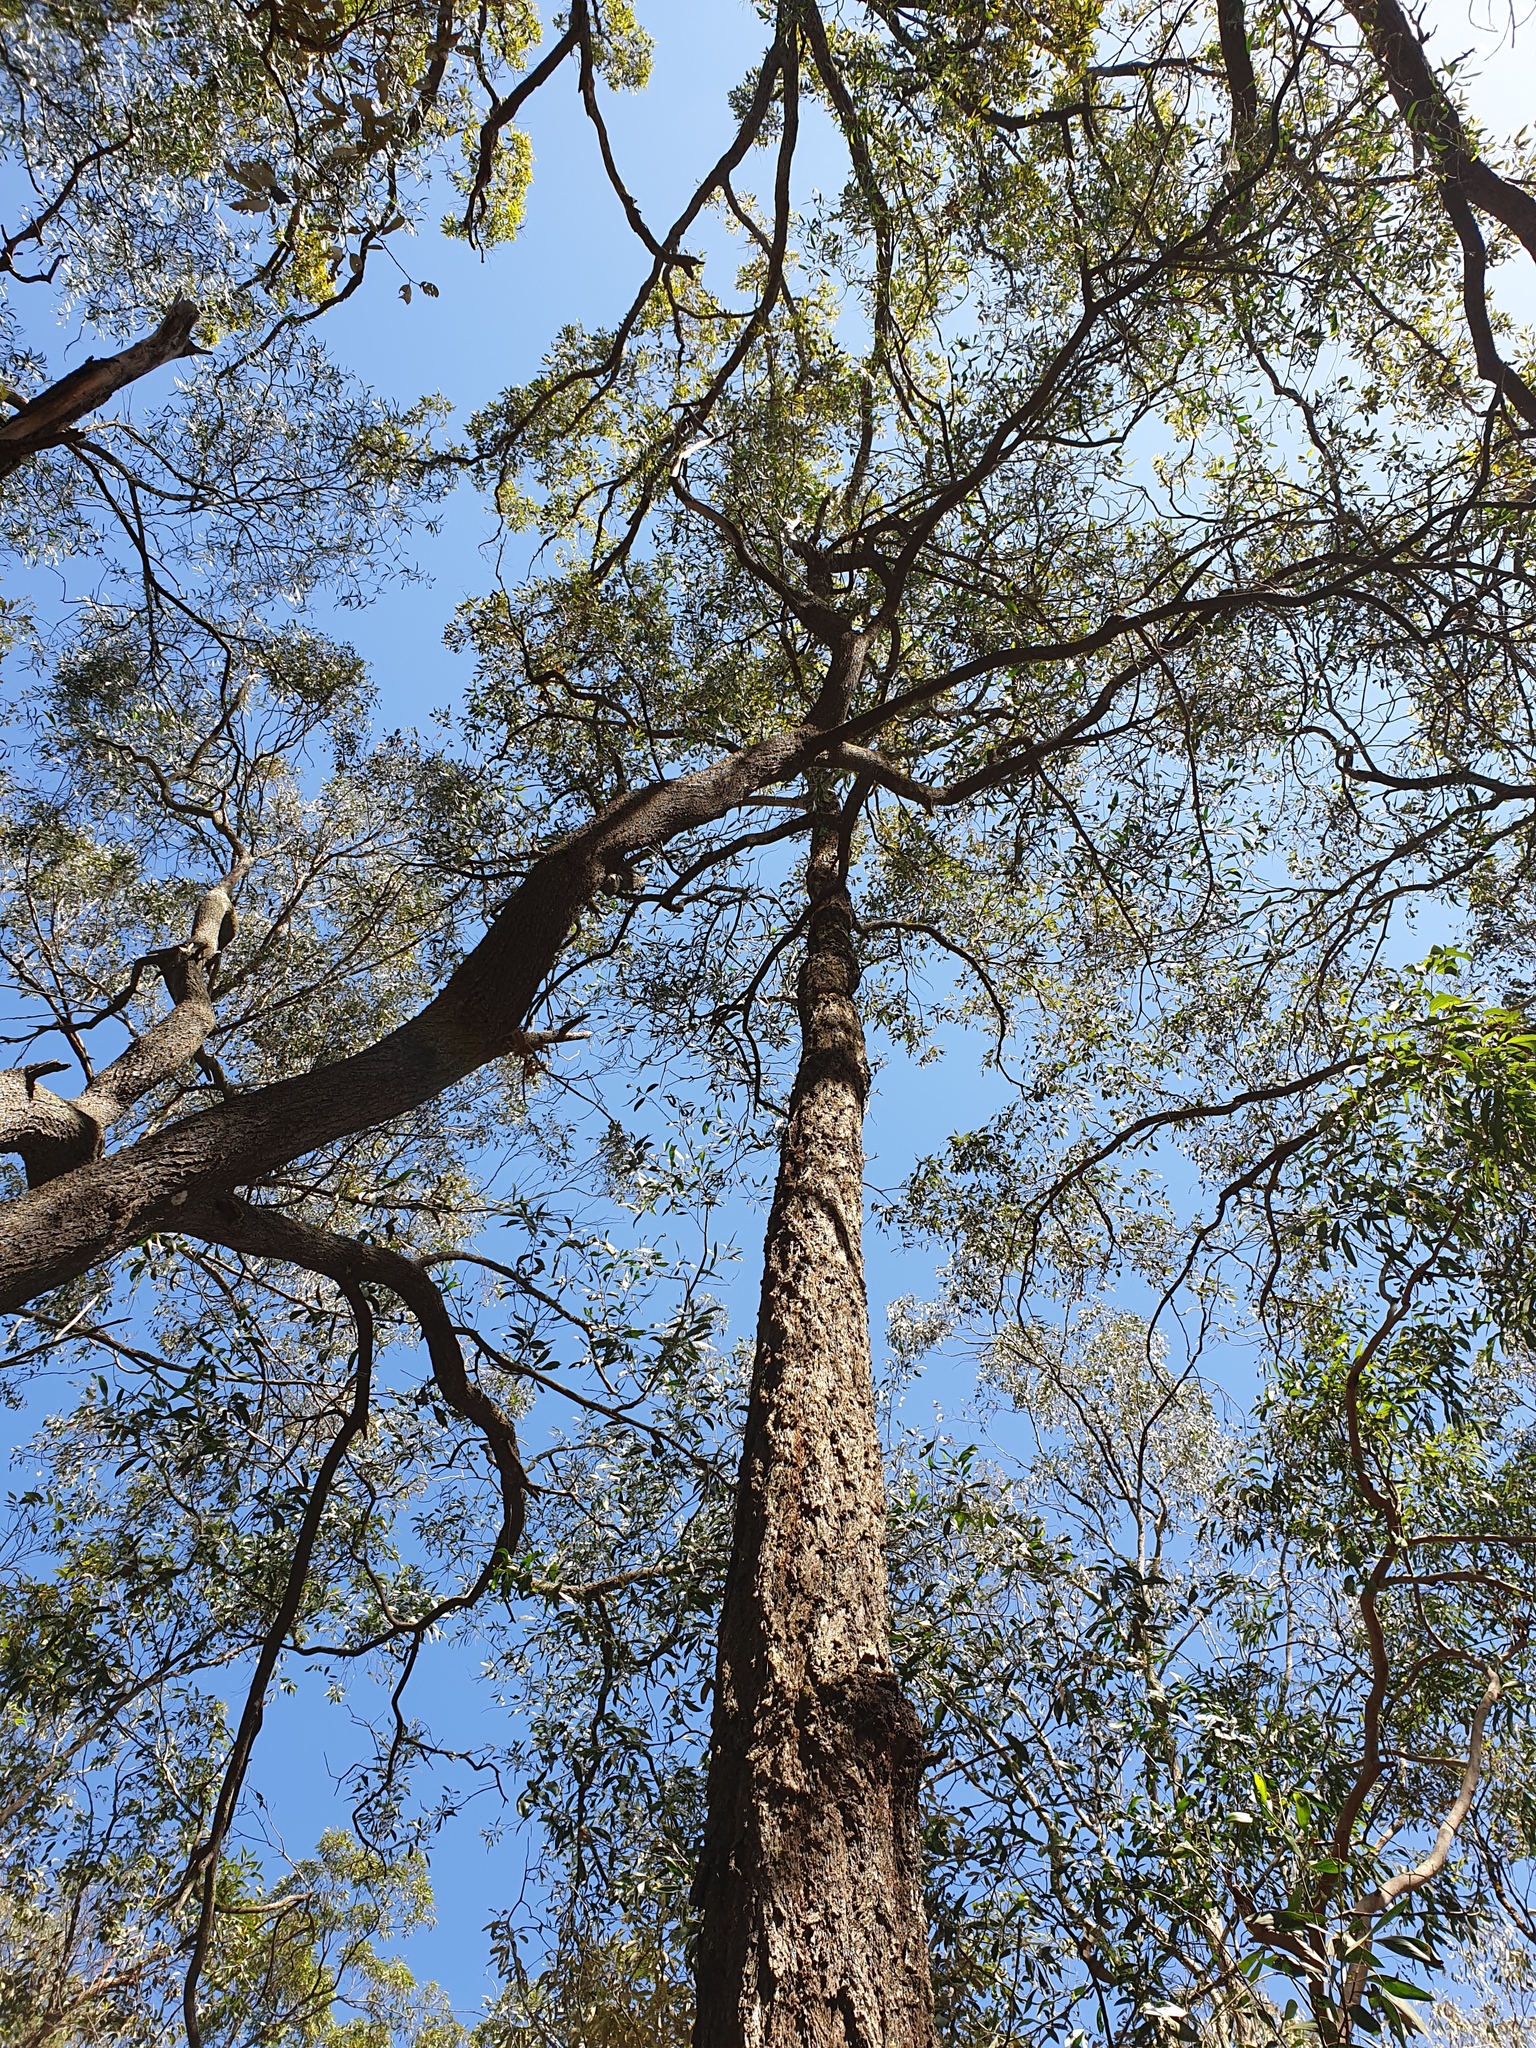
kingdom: Plantae
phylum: Tracheophyta
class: Magnoliopsida
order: Myrtales
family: Myrtaceae
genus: Eucalyptus
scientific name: Eucalyptus crebra
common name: Narrowleaf red ironbark
